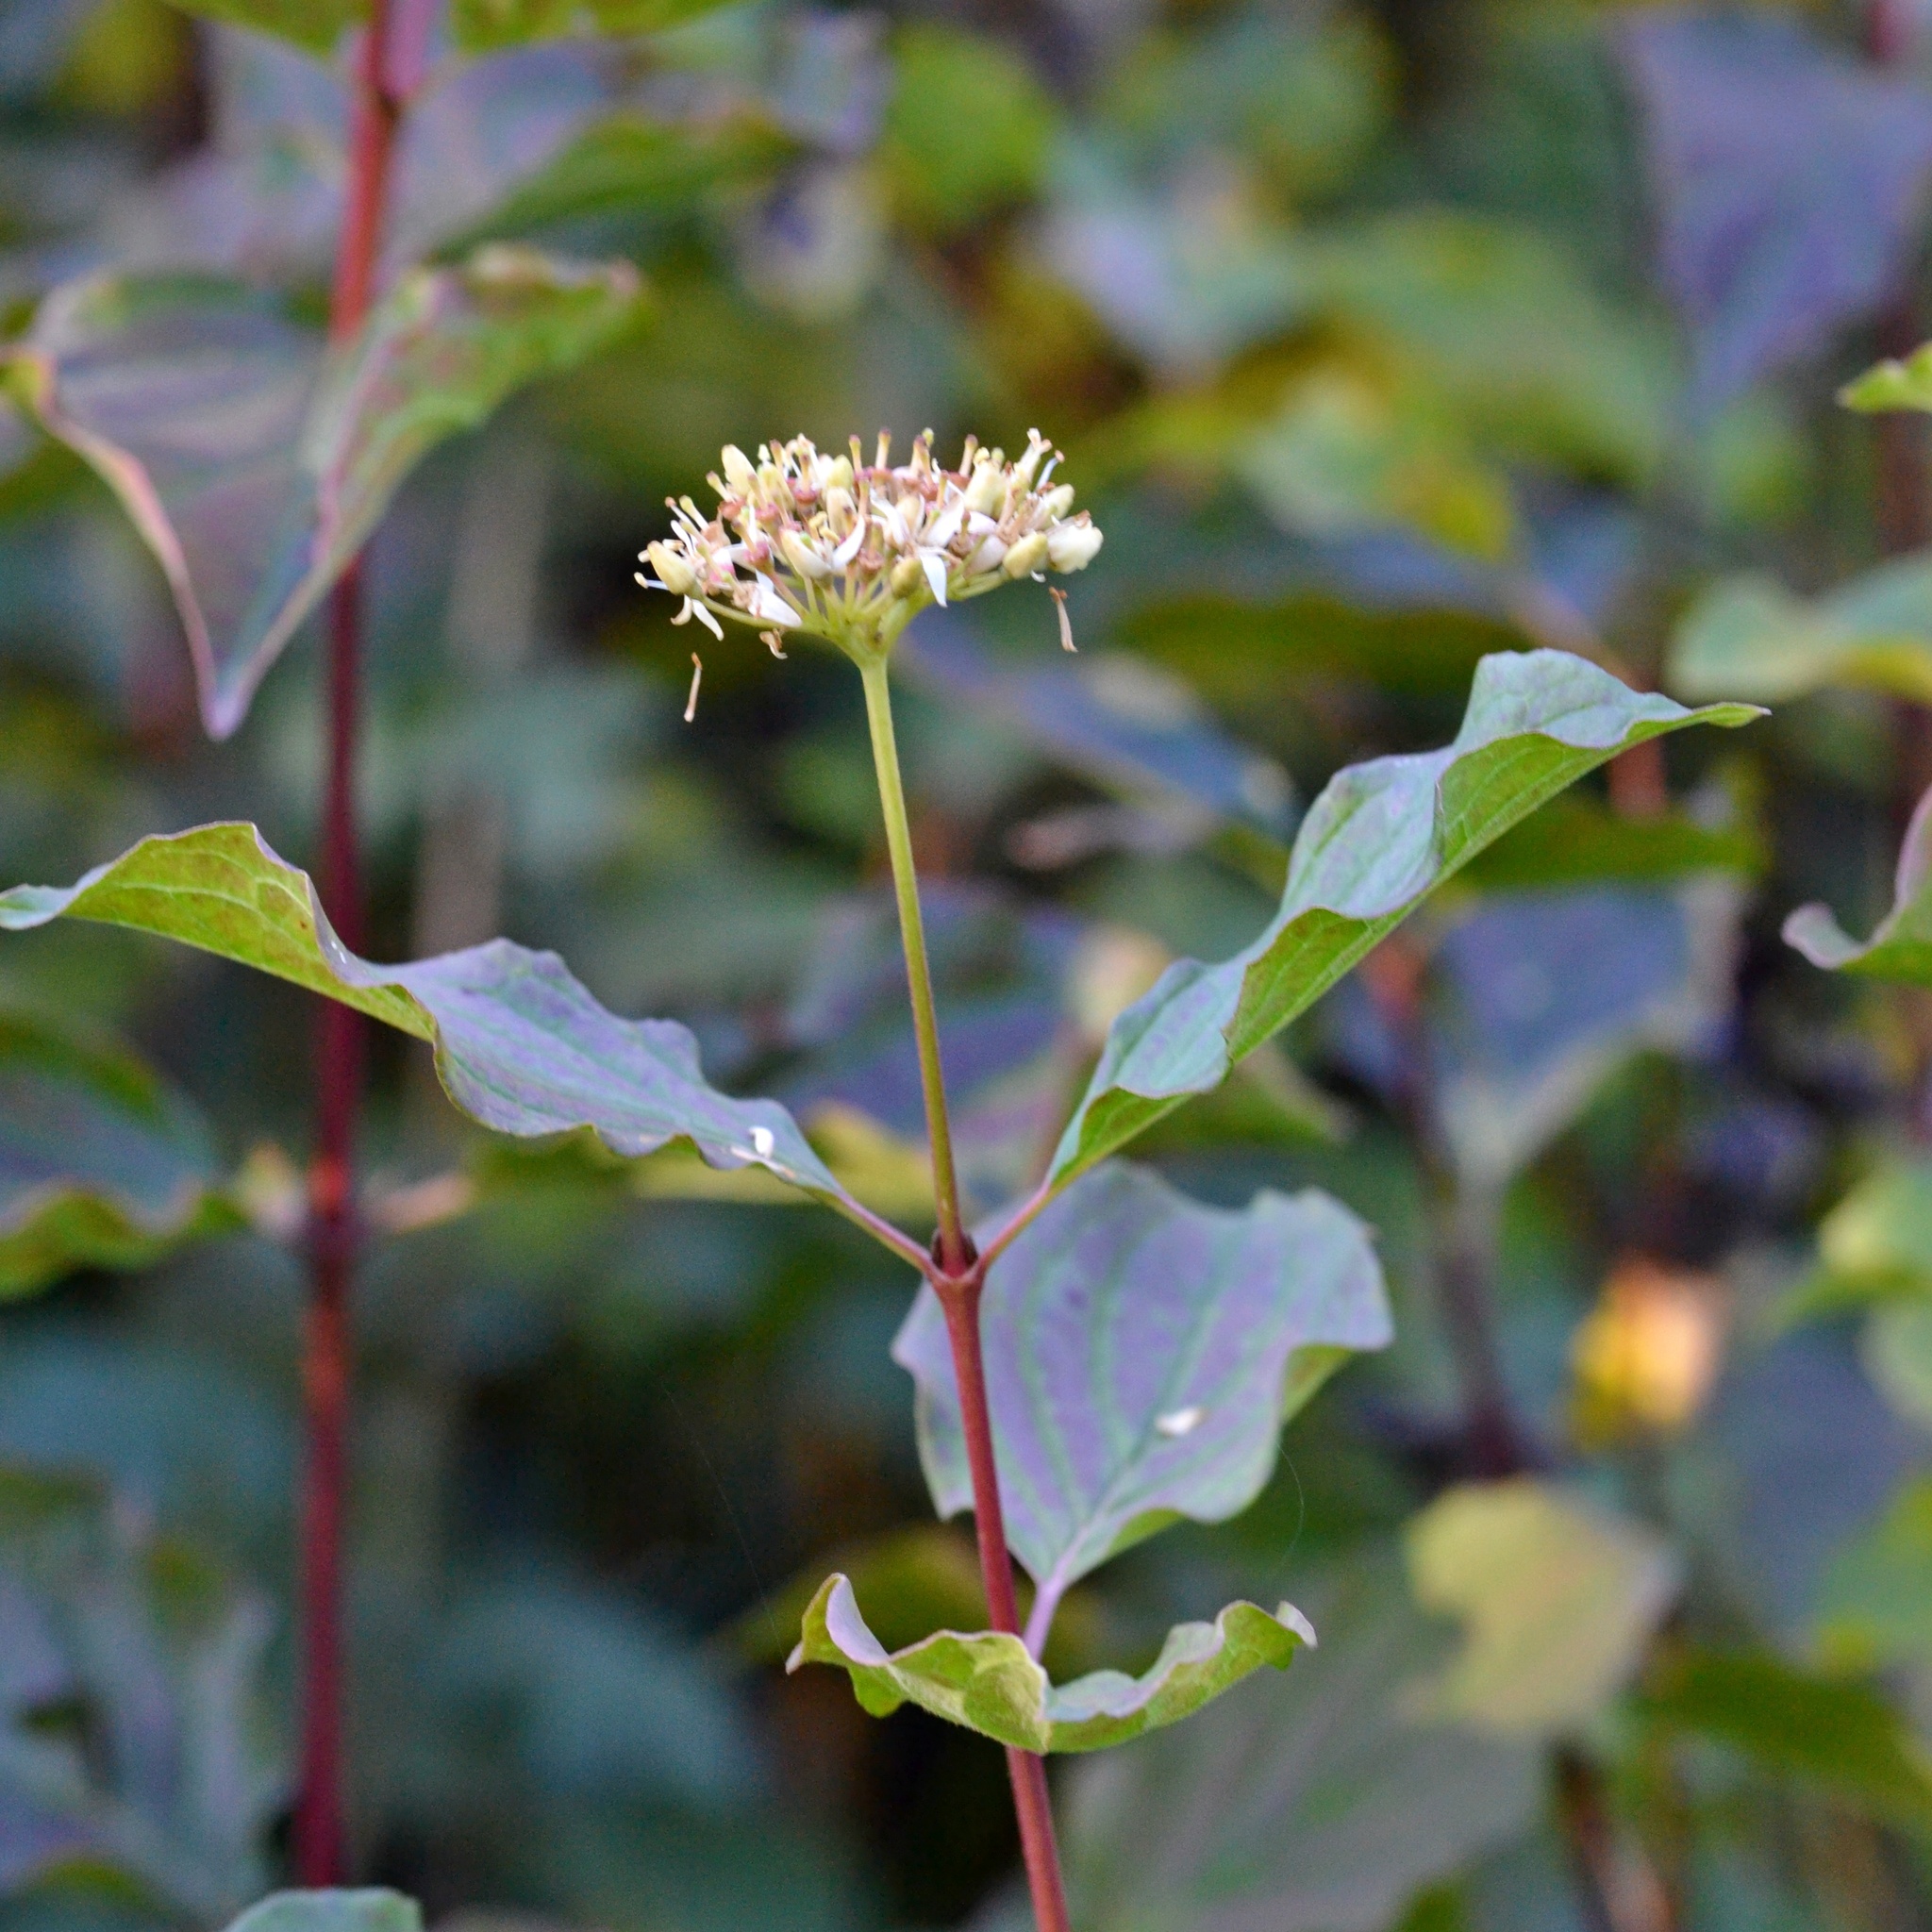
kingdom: Plantae
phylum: Tracheophyta
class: Magnoliopsida
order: Cornales
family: Cornaceae
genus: Cornus
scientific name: Cornus sanguinea
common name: Dogwood
